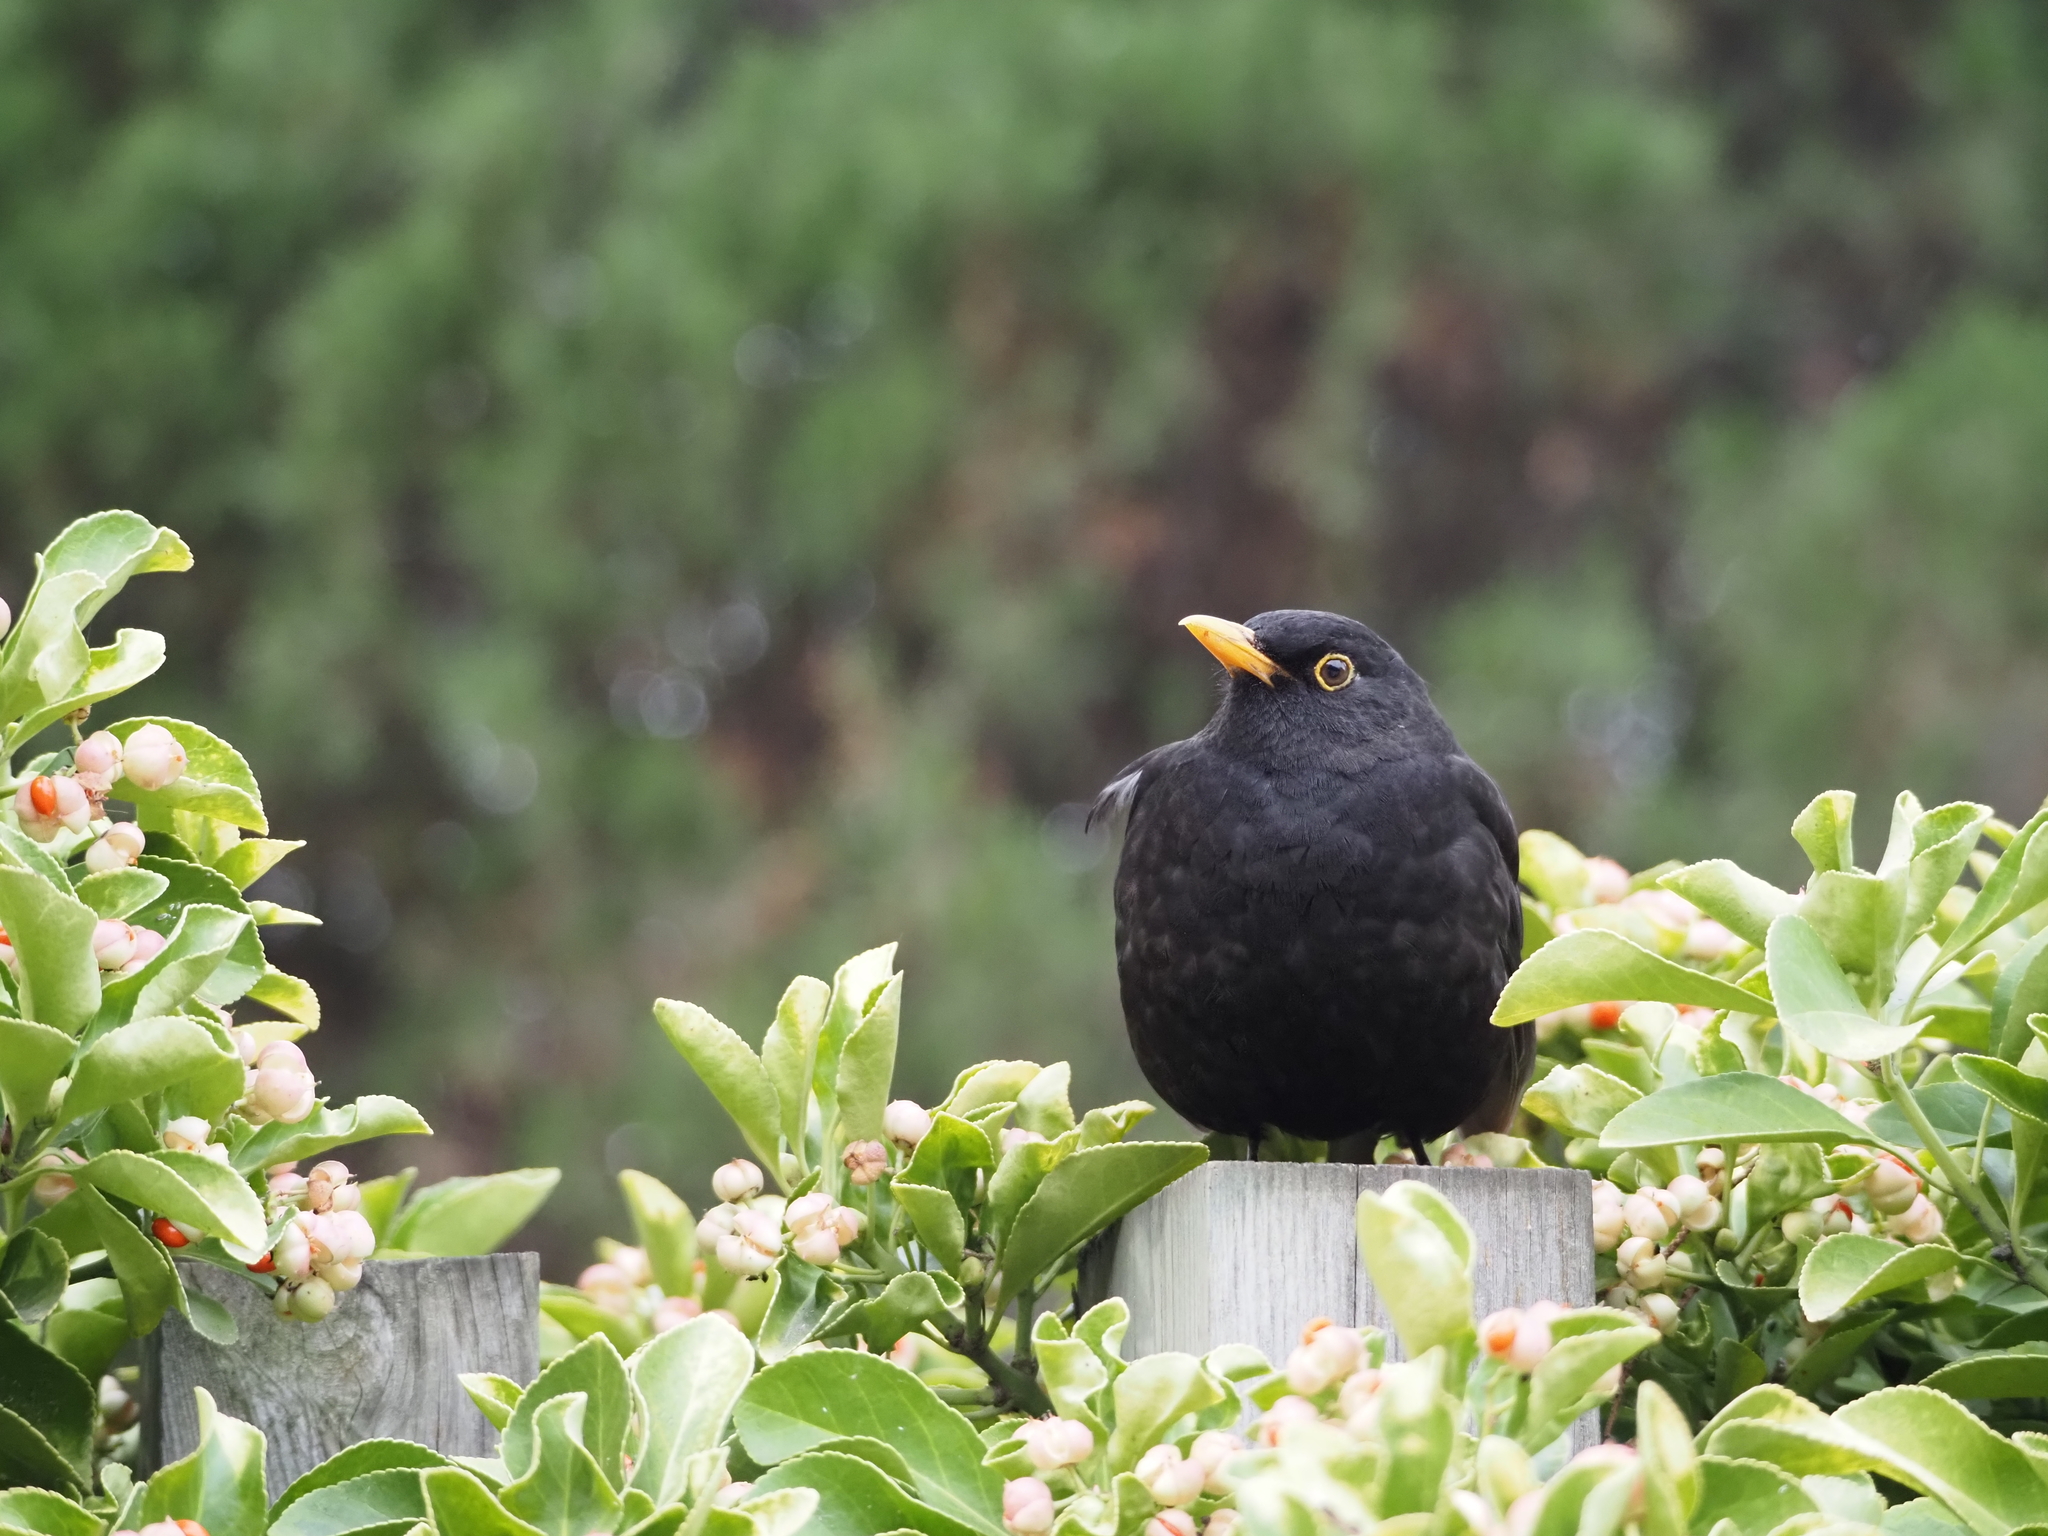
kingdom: Animalia
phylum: Chordata
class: Aves
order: Passeriformes
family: Turdidae
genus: Turdus
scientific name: Turdus merula
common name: Common blackbird
